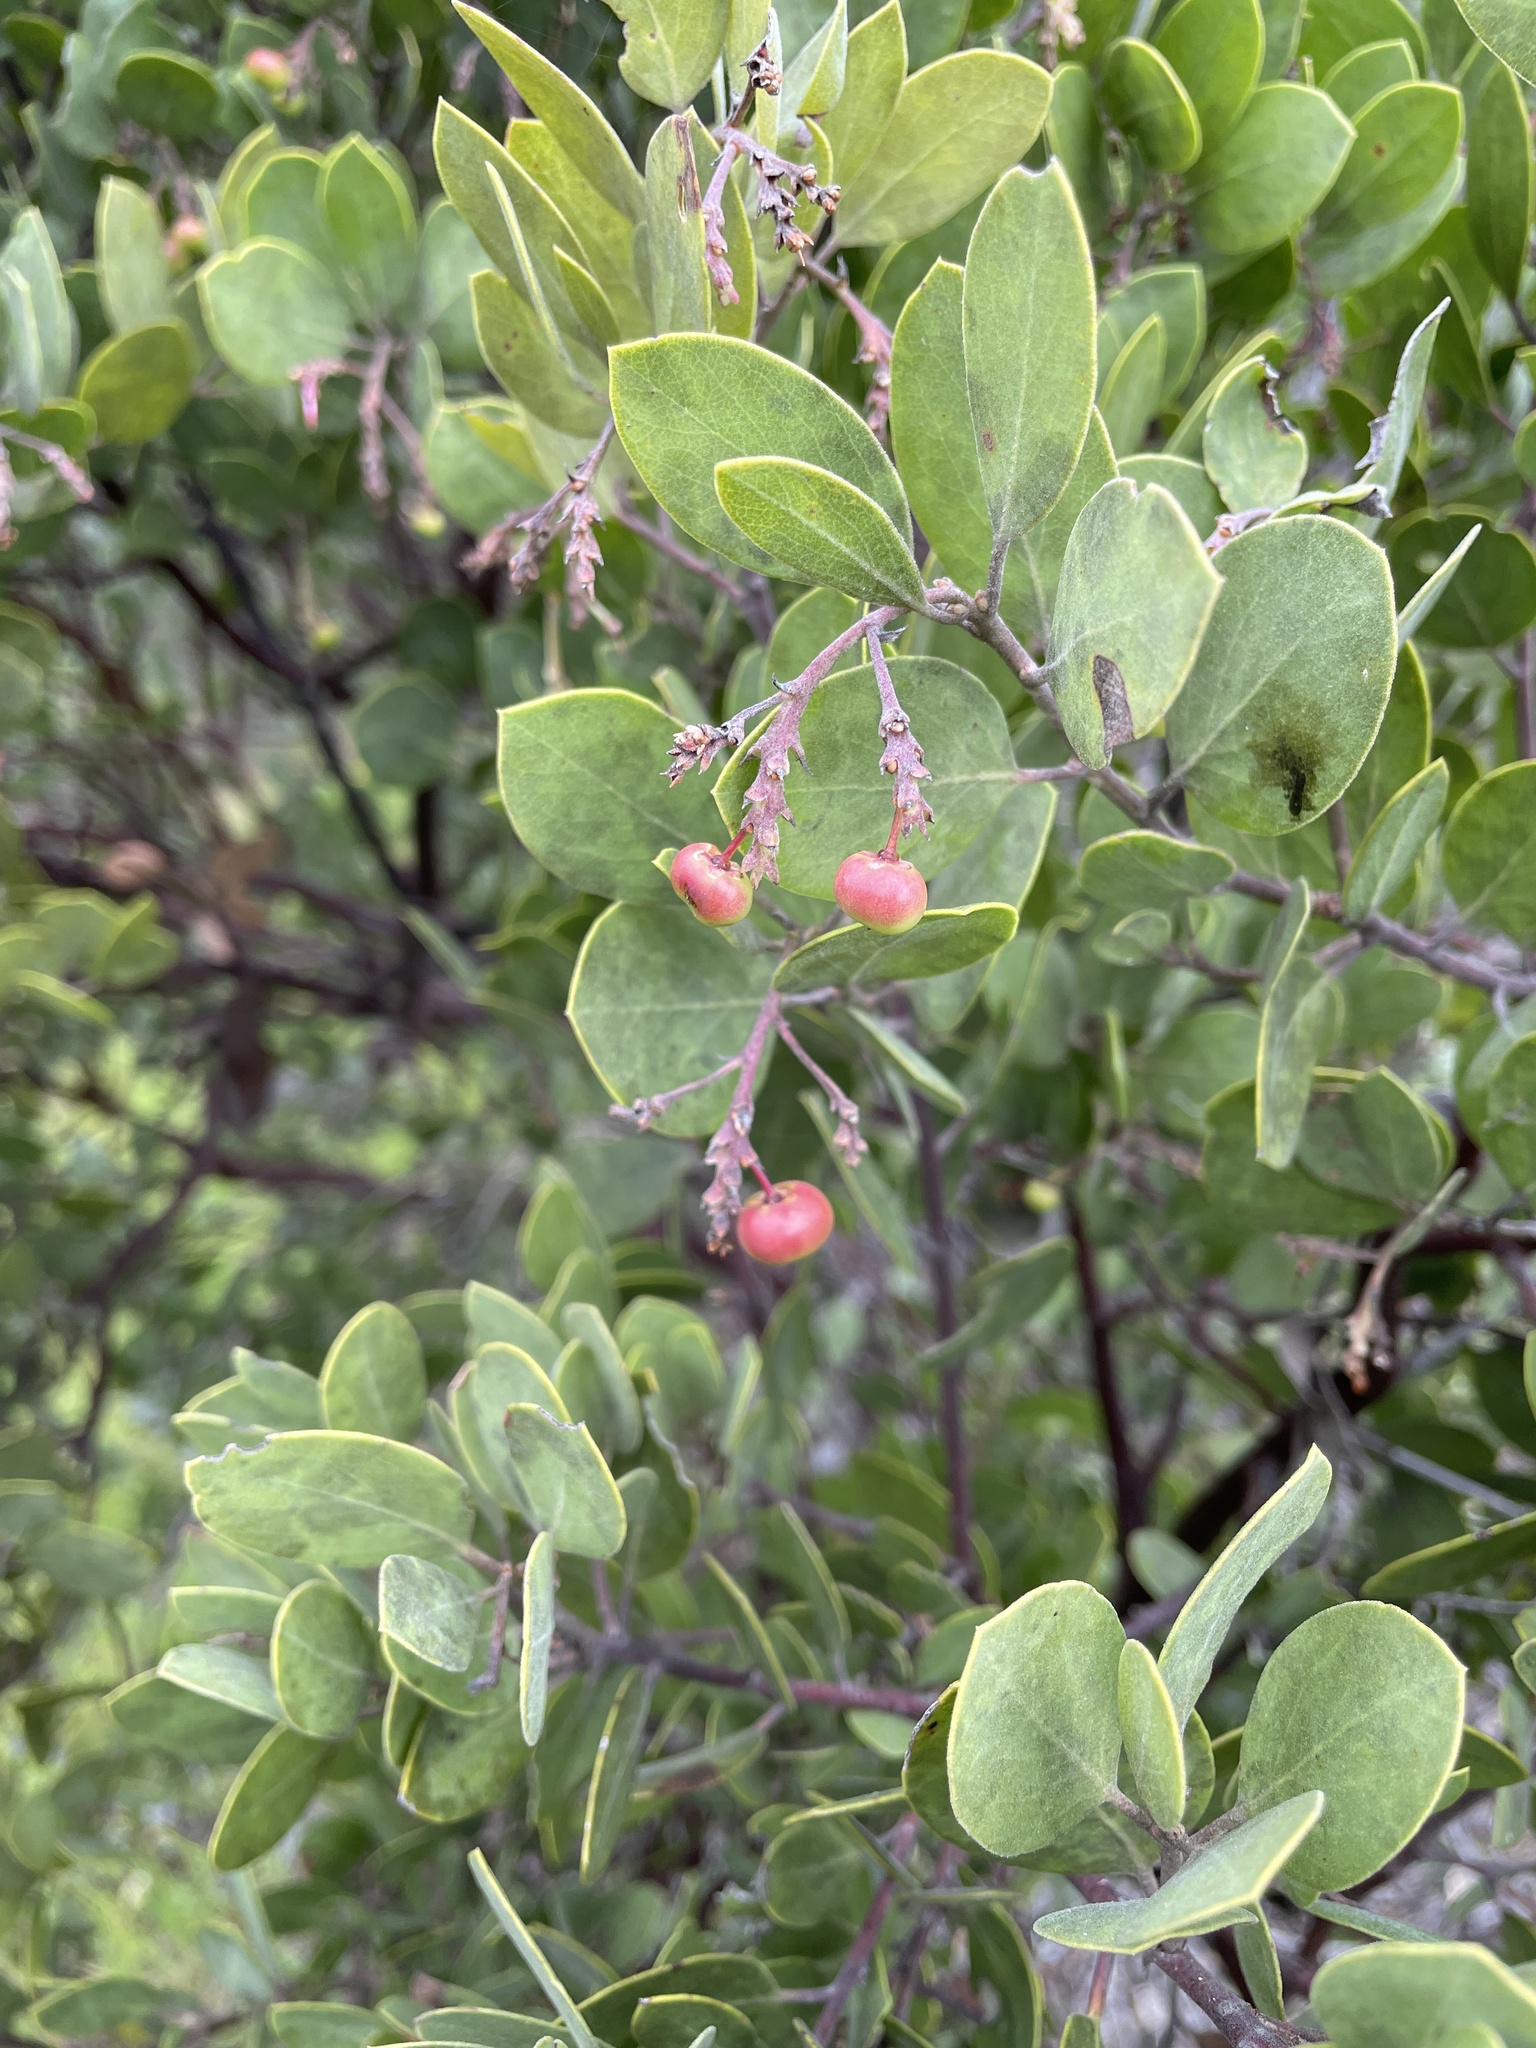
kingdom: Plantae
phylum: Tracheophyta
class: Magnoliopsida
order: Ericales
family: Ericaceae
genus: Arctostaphylos
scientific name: Arctostaphylos manzanita
